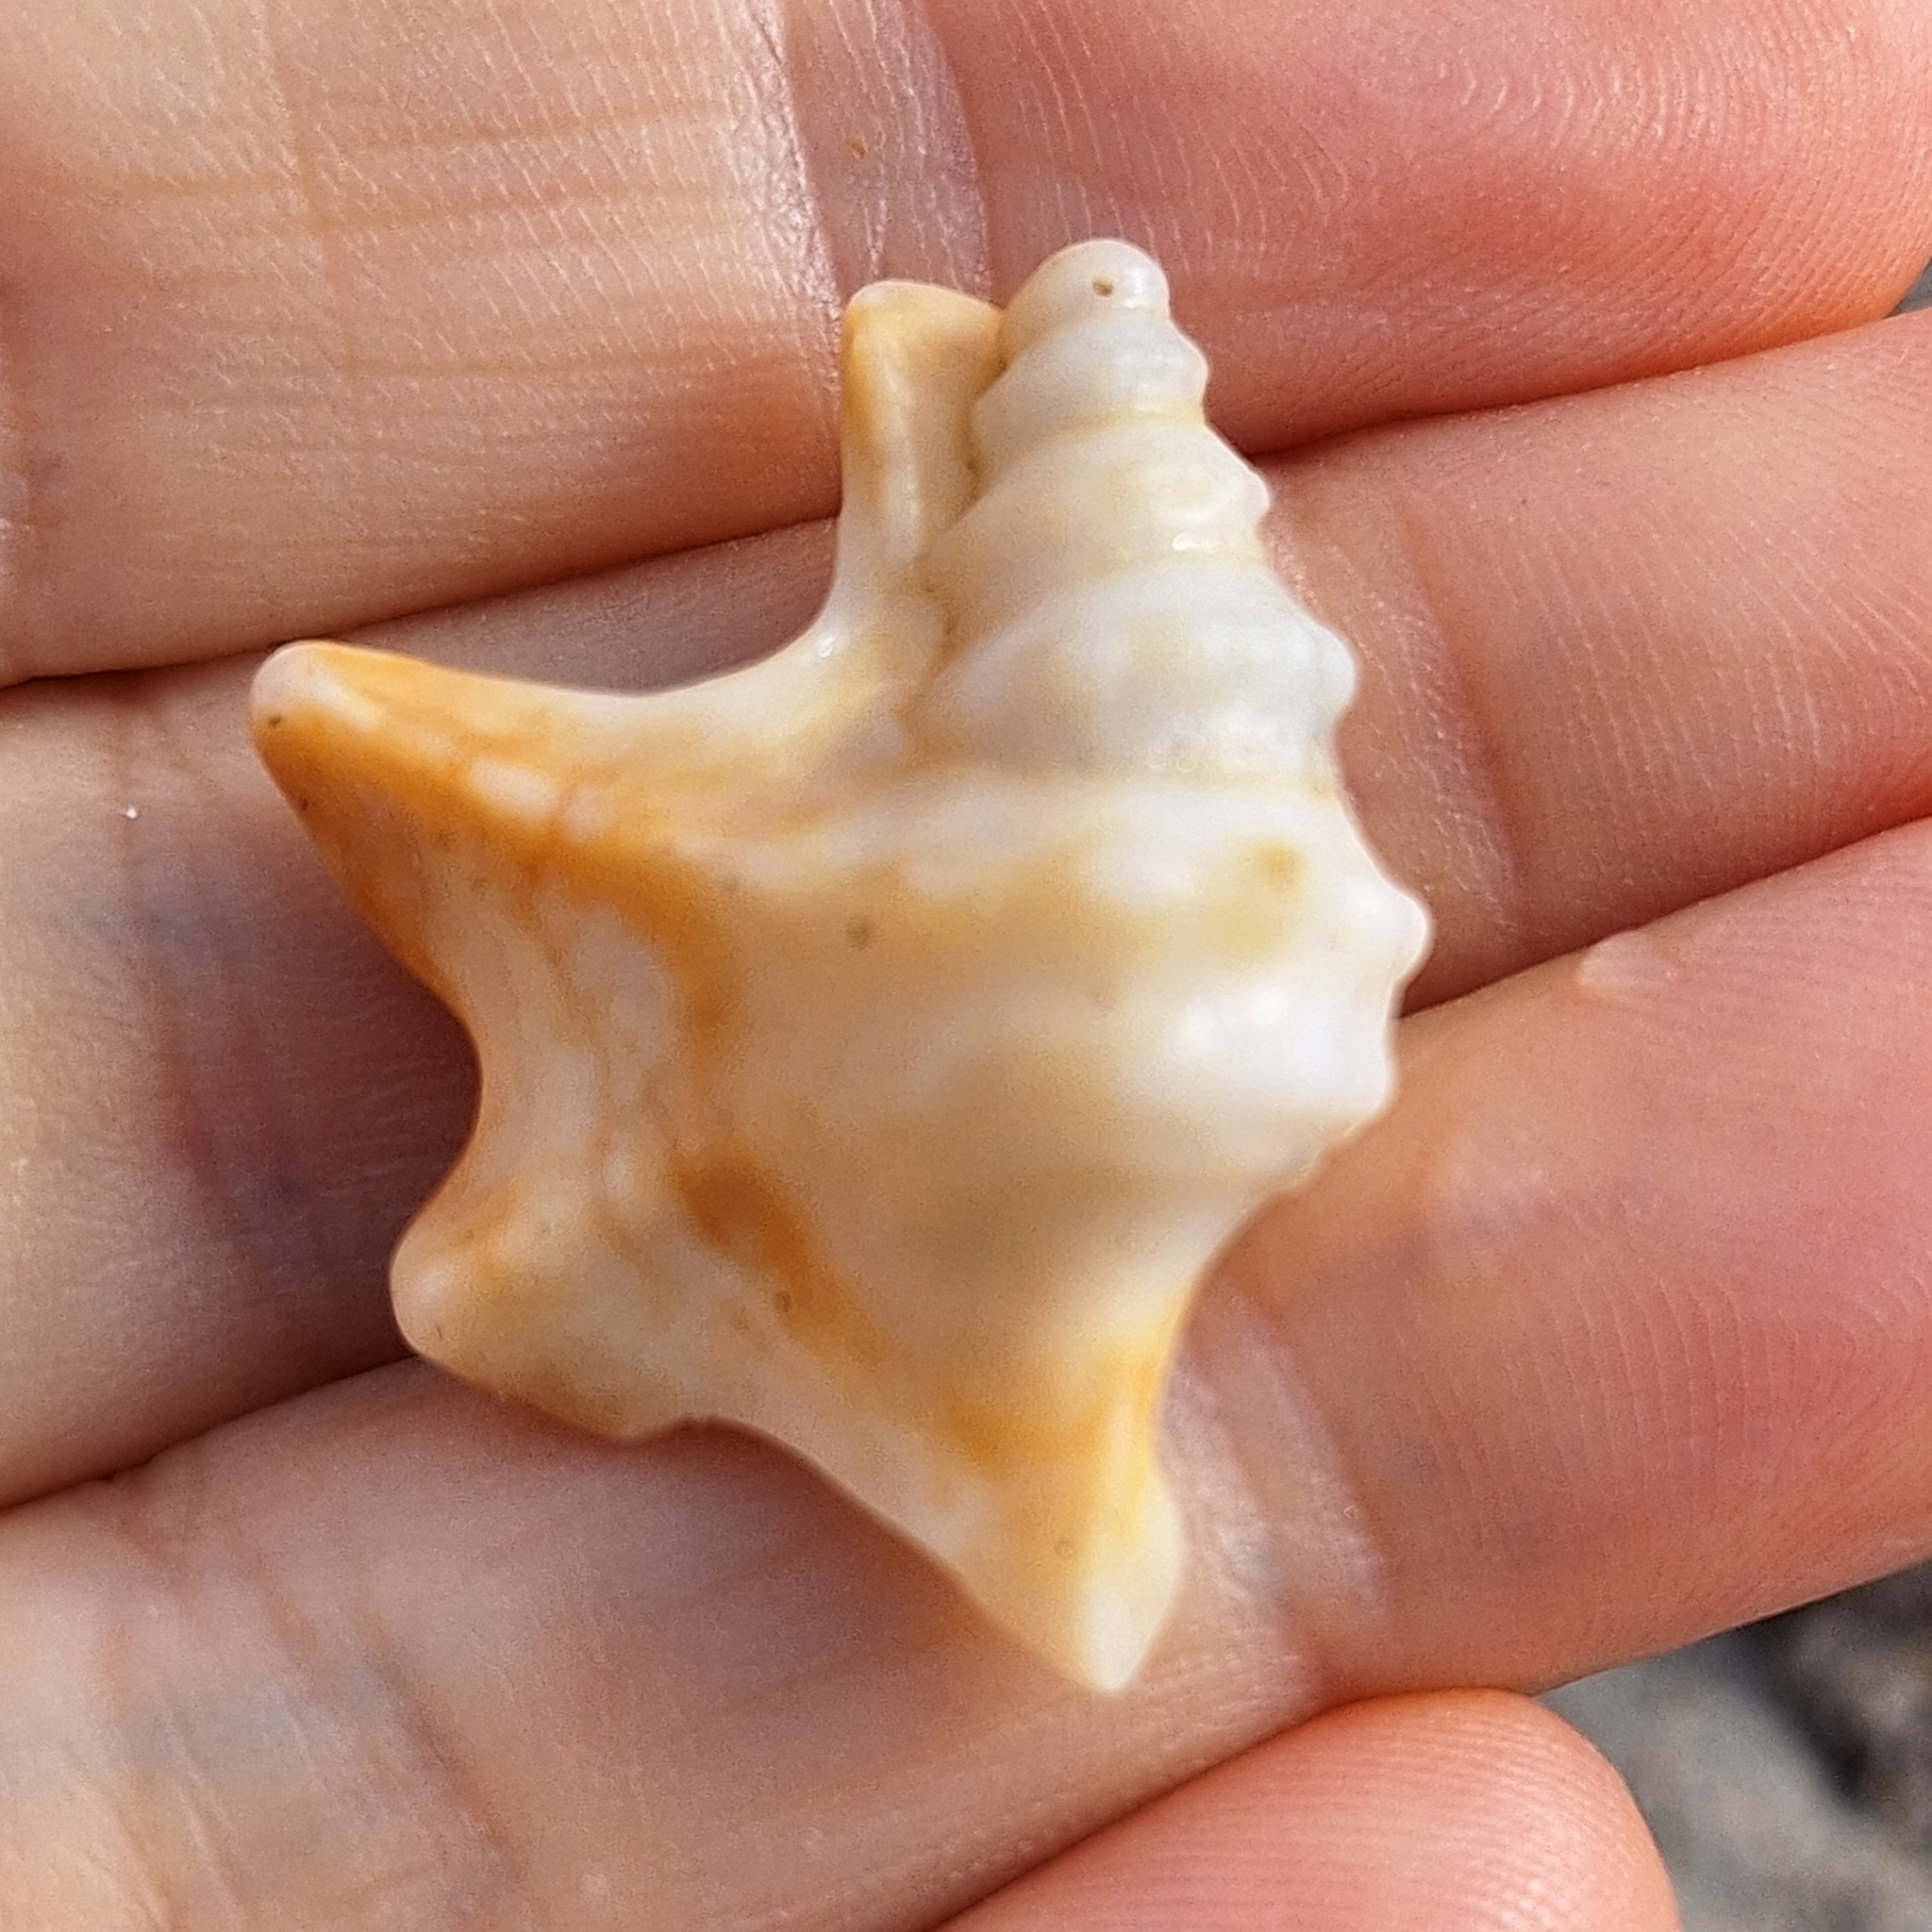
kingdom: Animalia
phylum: Mollusca
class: Gastropoda
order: Littorinimorpha
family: Aporrhaidae
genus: Aporrhais
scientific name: Aporrhais pespelecani
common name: Common pelican’s foot
